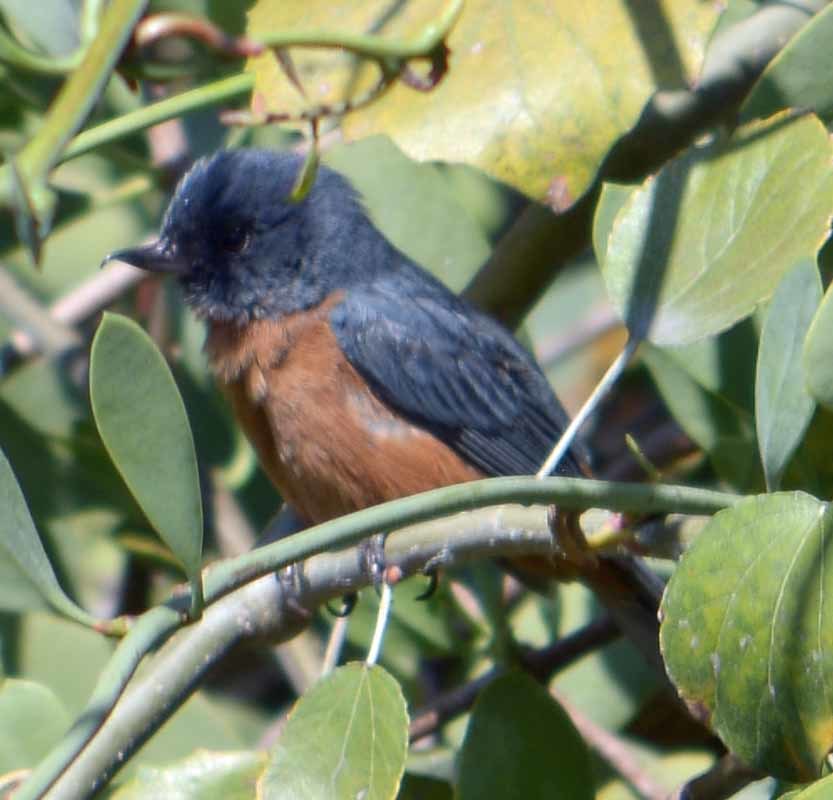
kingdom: Animalia
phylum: Chordata
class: Aves
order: Passeriformes
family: Thraupidae
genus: Diglossa
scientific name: Diglossa baritula
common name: Cinnamon-bellied flowerpiercer
